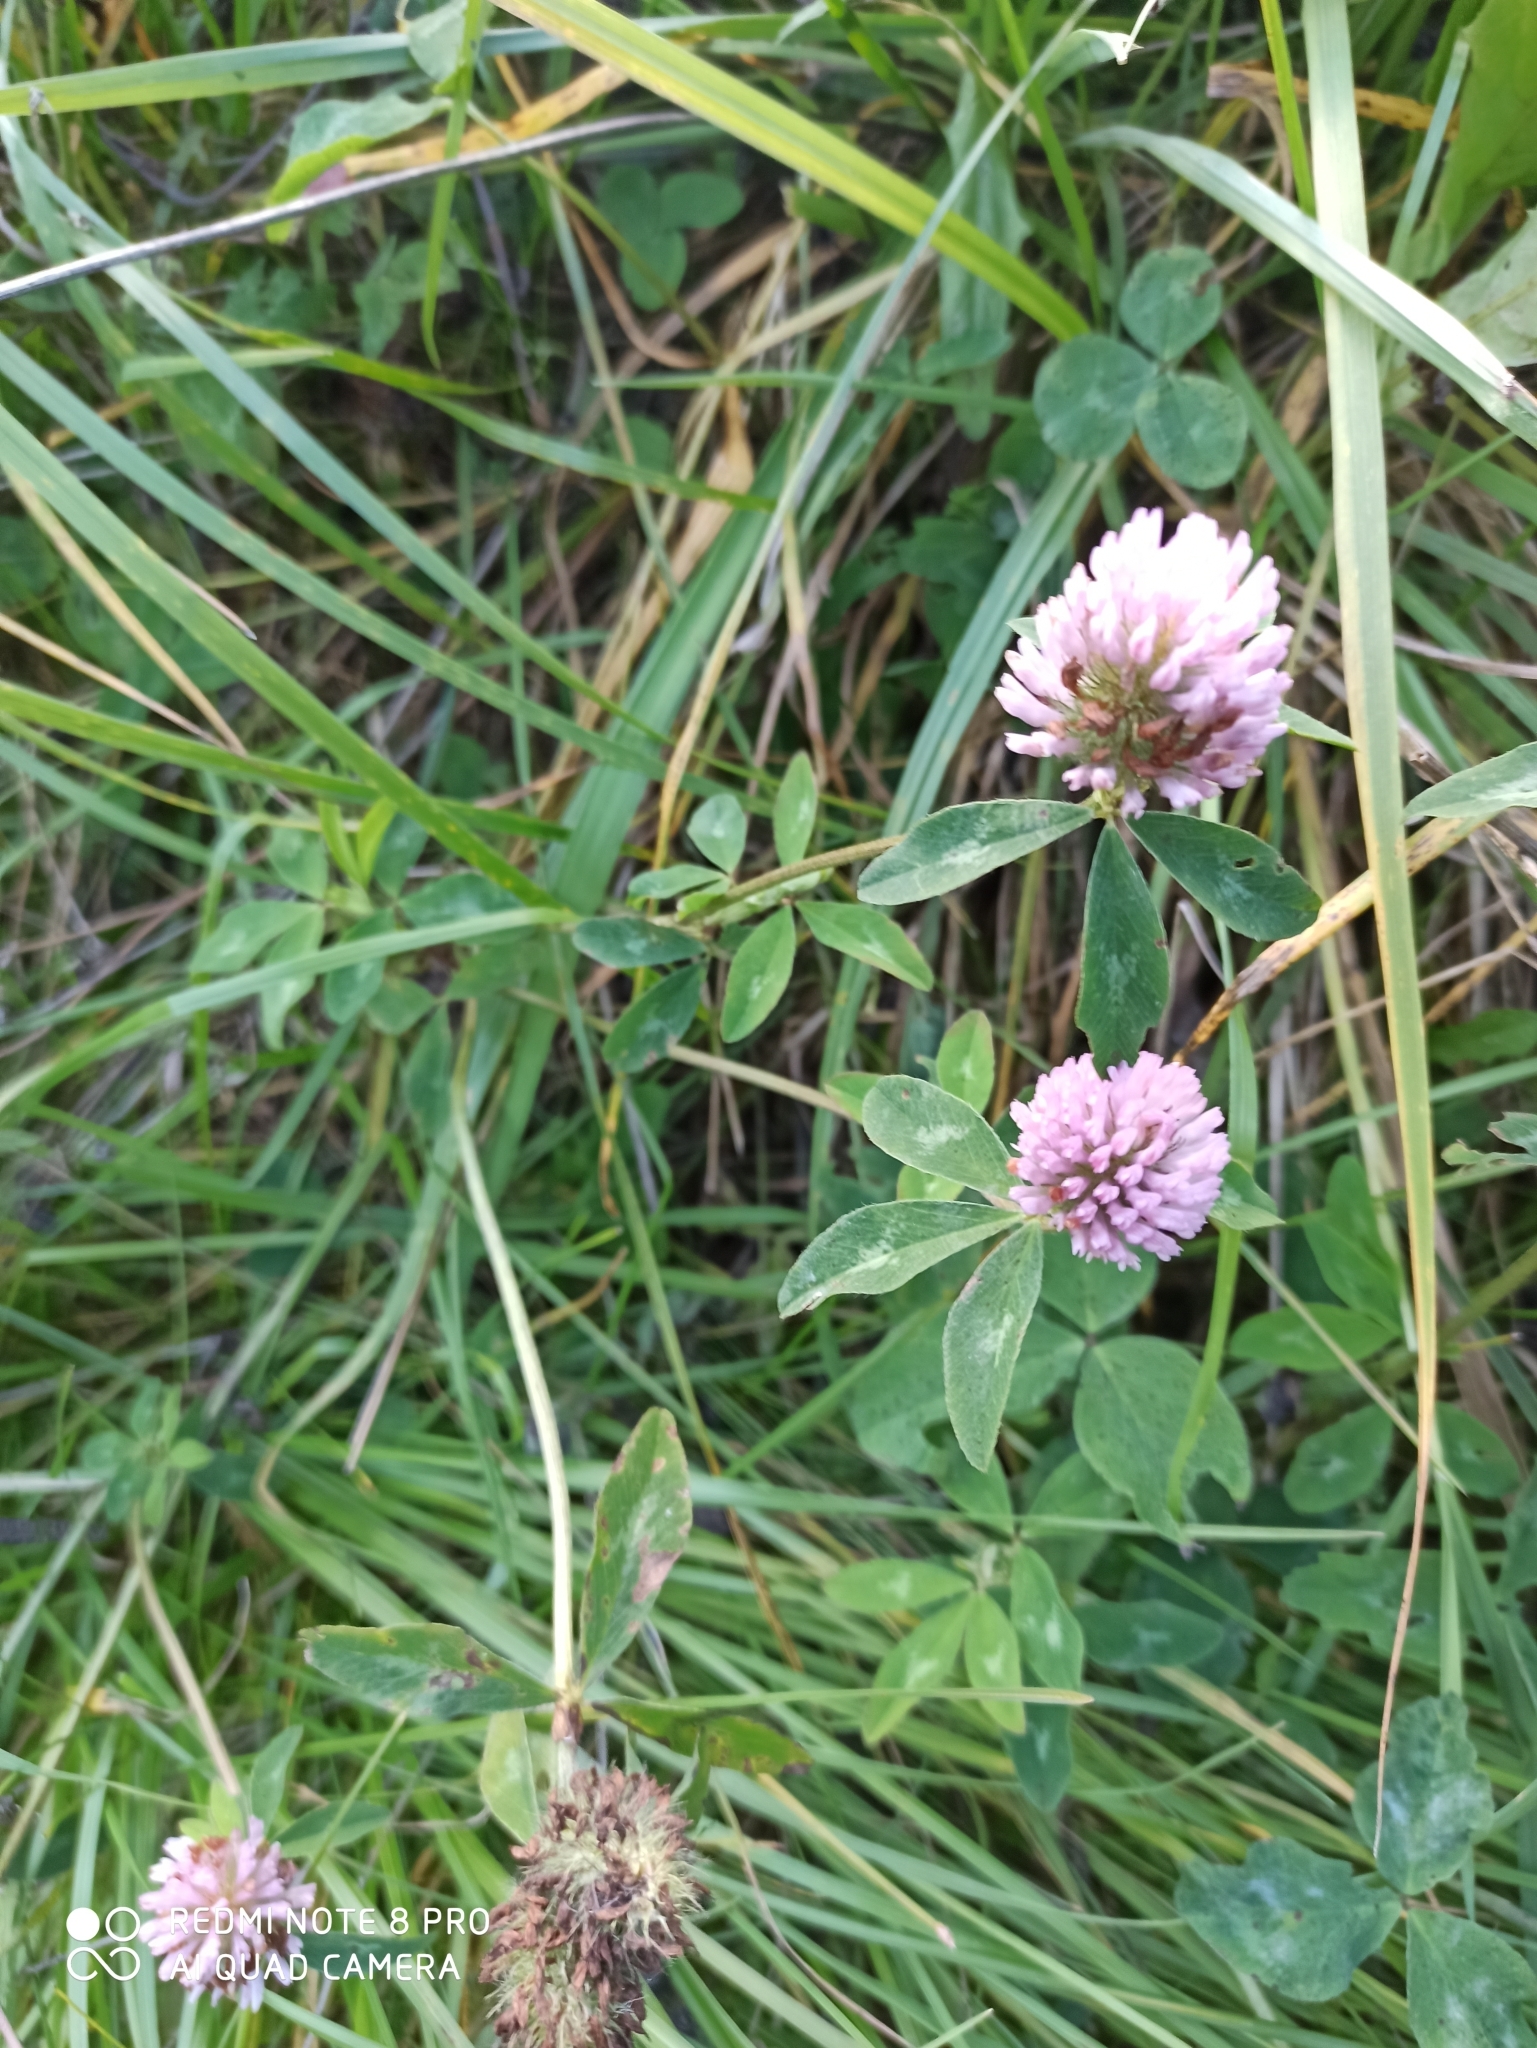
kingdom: Plantae
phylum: Tracheophyta
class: Magnoliopsida
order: Fabales
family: Fabaceae
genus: Trifolium
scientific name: Trifolium pratense
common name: Red clover
